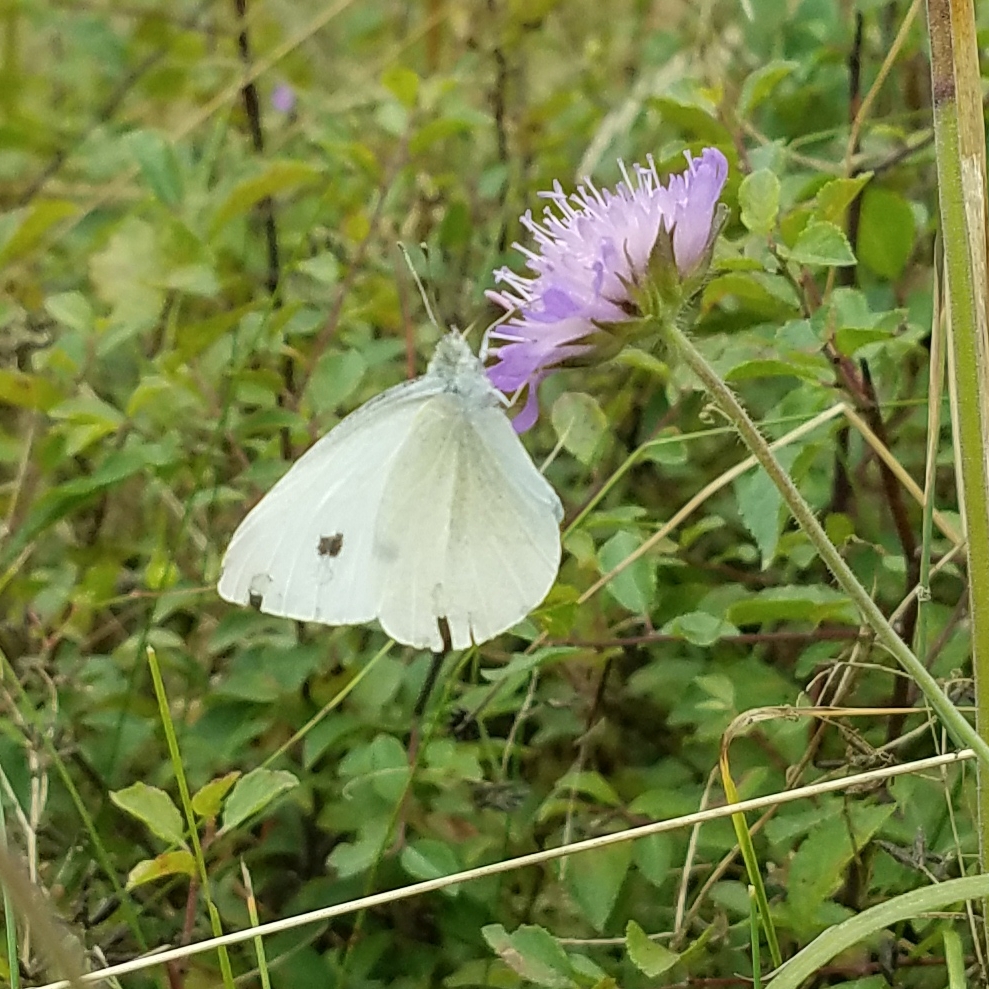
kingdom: Animalia
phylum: Arthropoda
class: Insecta
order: Lepidoptera
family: Pieridae
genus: Pieris
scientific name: Pieris rapae
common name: Small white
